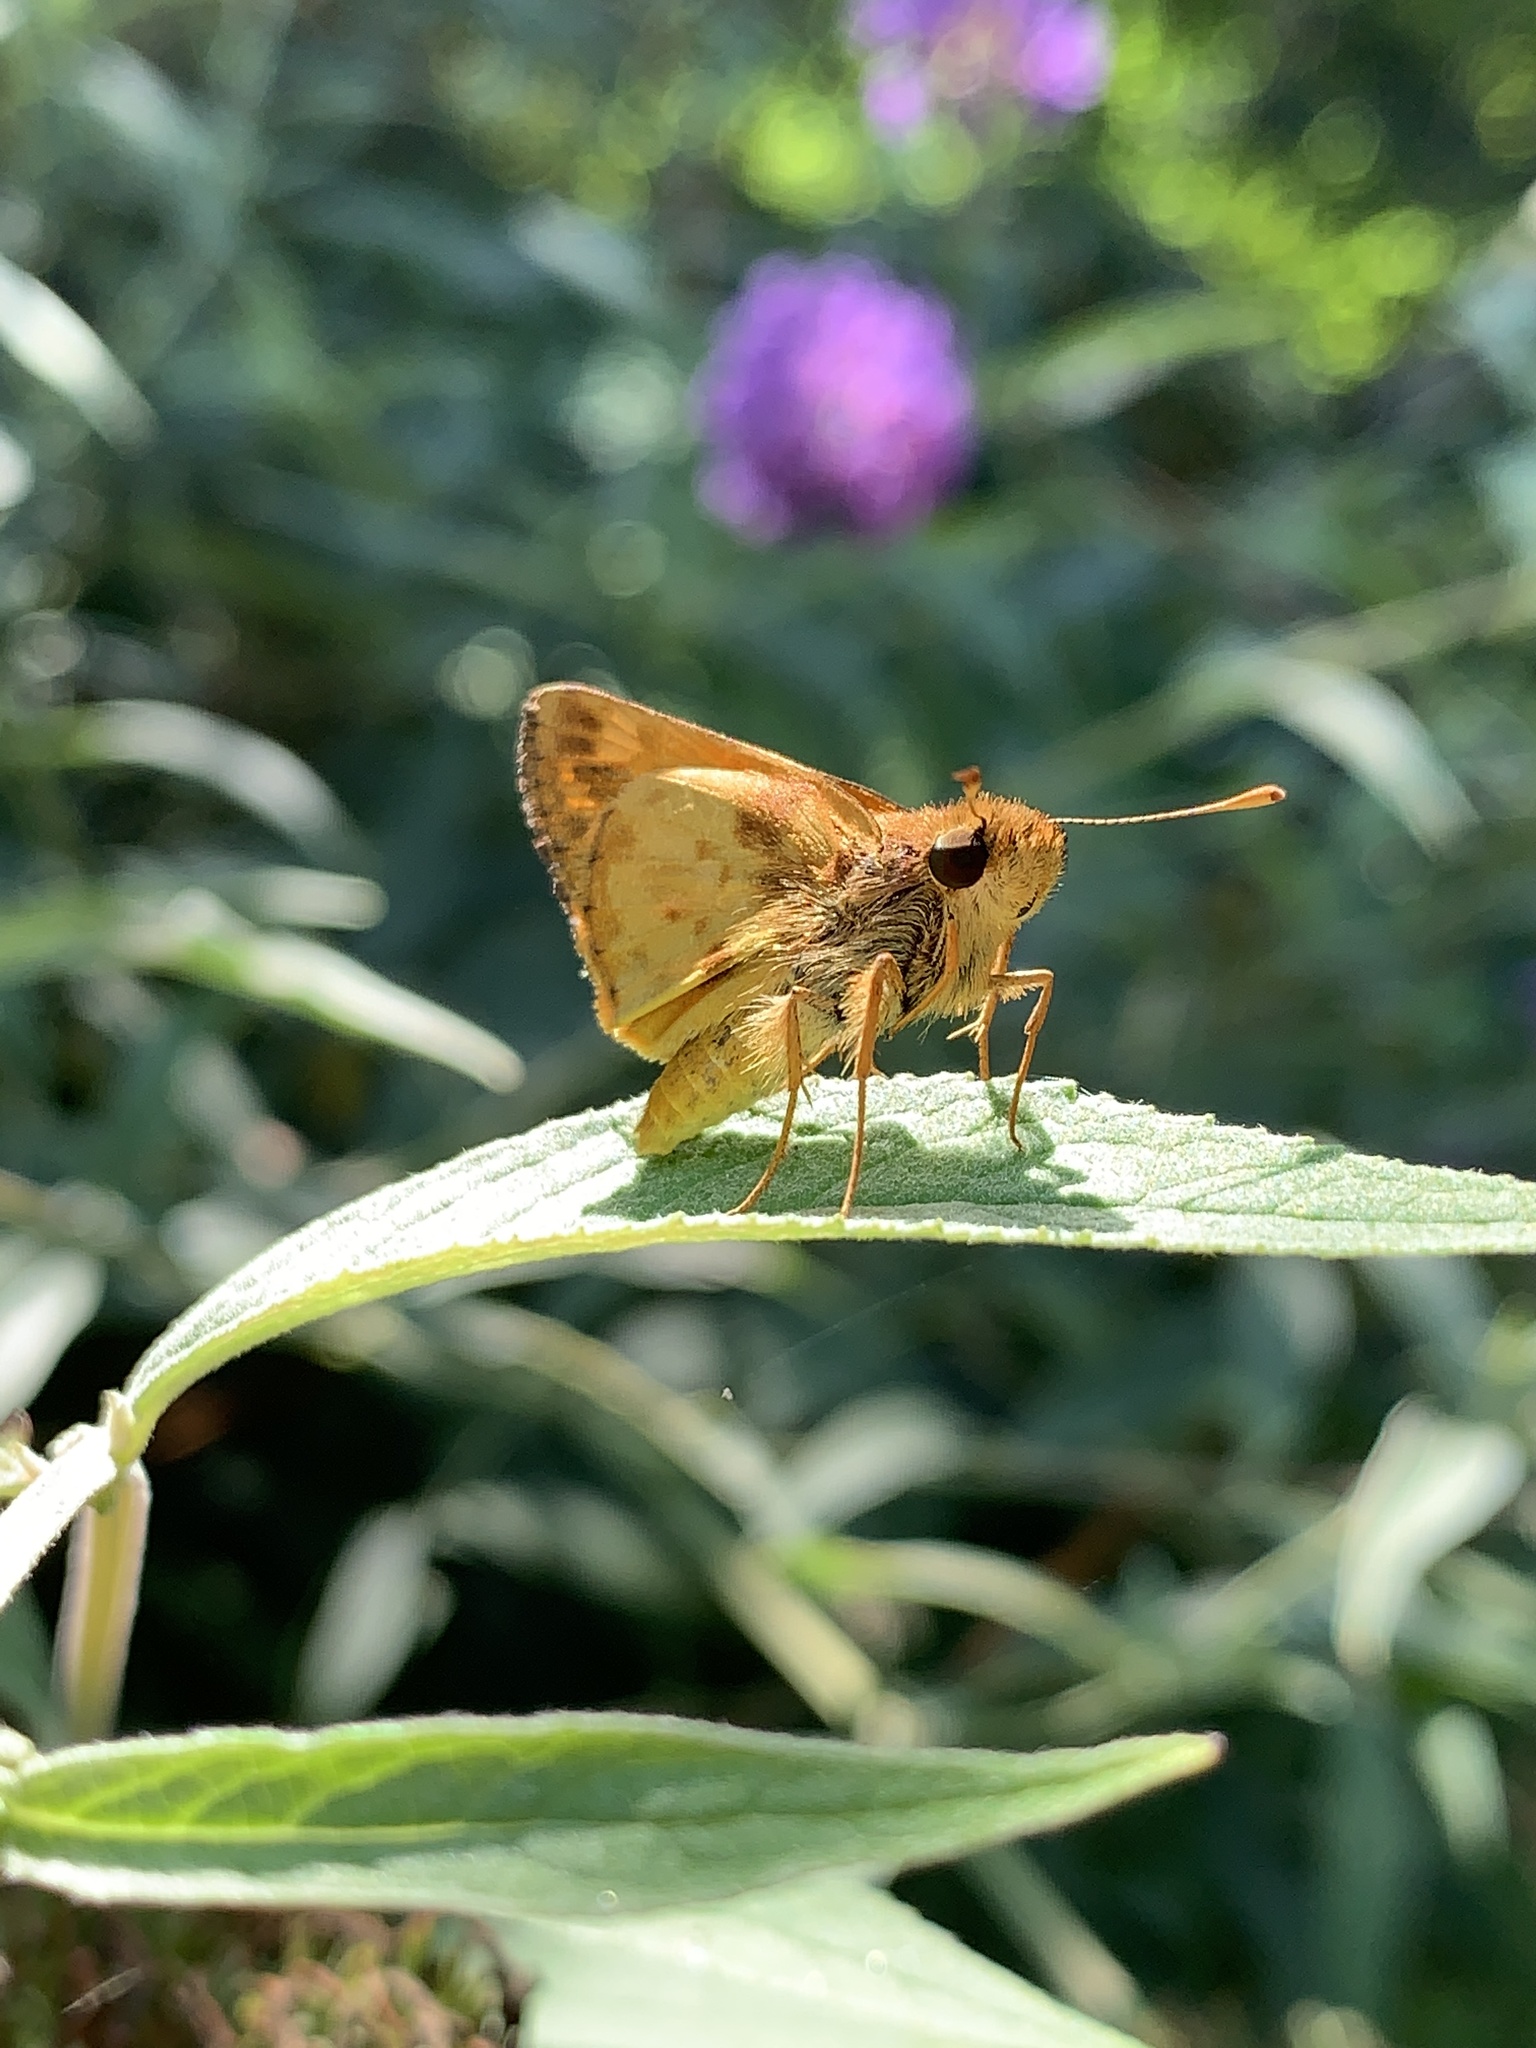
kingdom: Animalia
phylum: Arthropoda
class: Insecta
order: Lepidoptera
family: Hesperiidae
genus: Lon
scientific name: Lon zabulon
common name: Zabulon skipper
